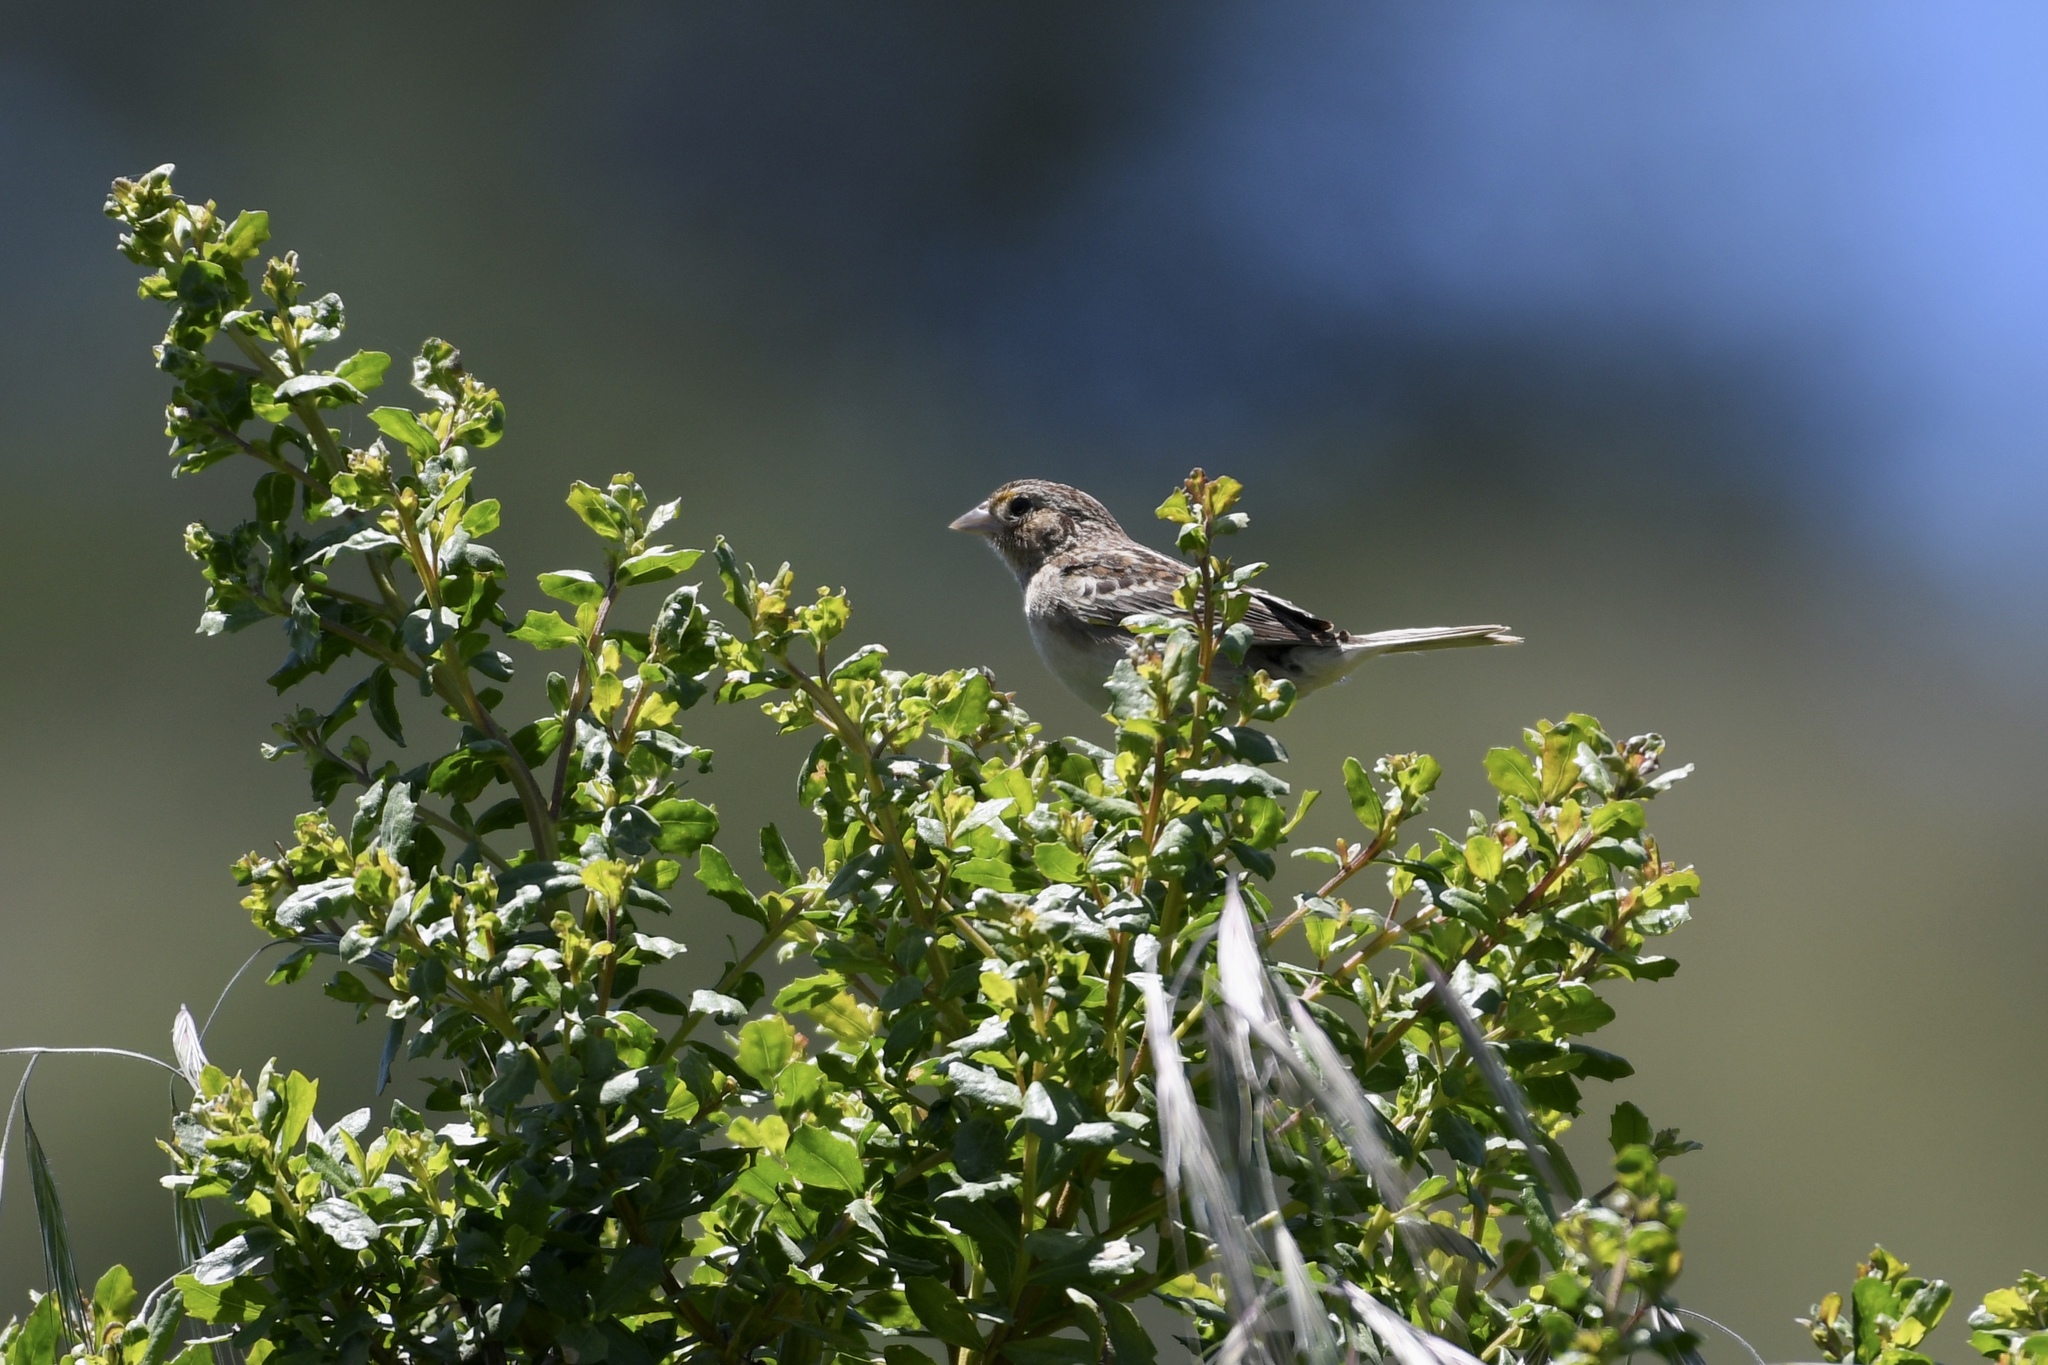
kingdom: Animalia
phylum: Chordata
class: Aves
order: Passeriformes
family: Passerellidae
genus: Ammodramus
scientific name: Ammodramus savannarum
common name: Grasshopper sparrow
